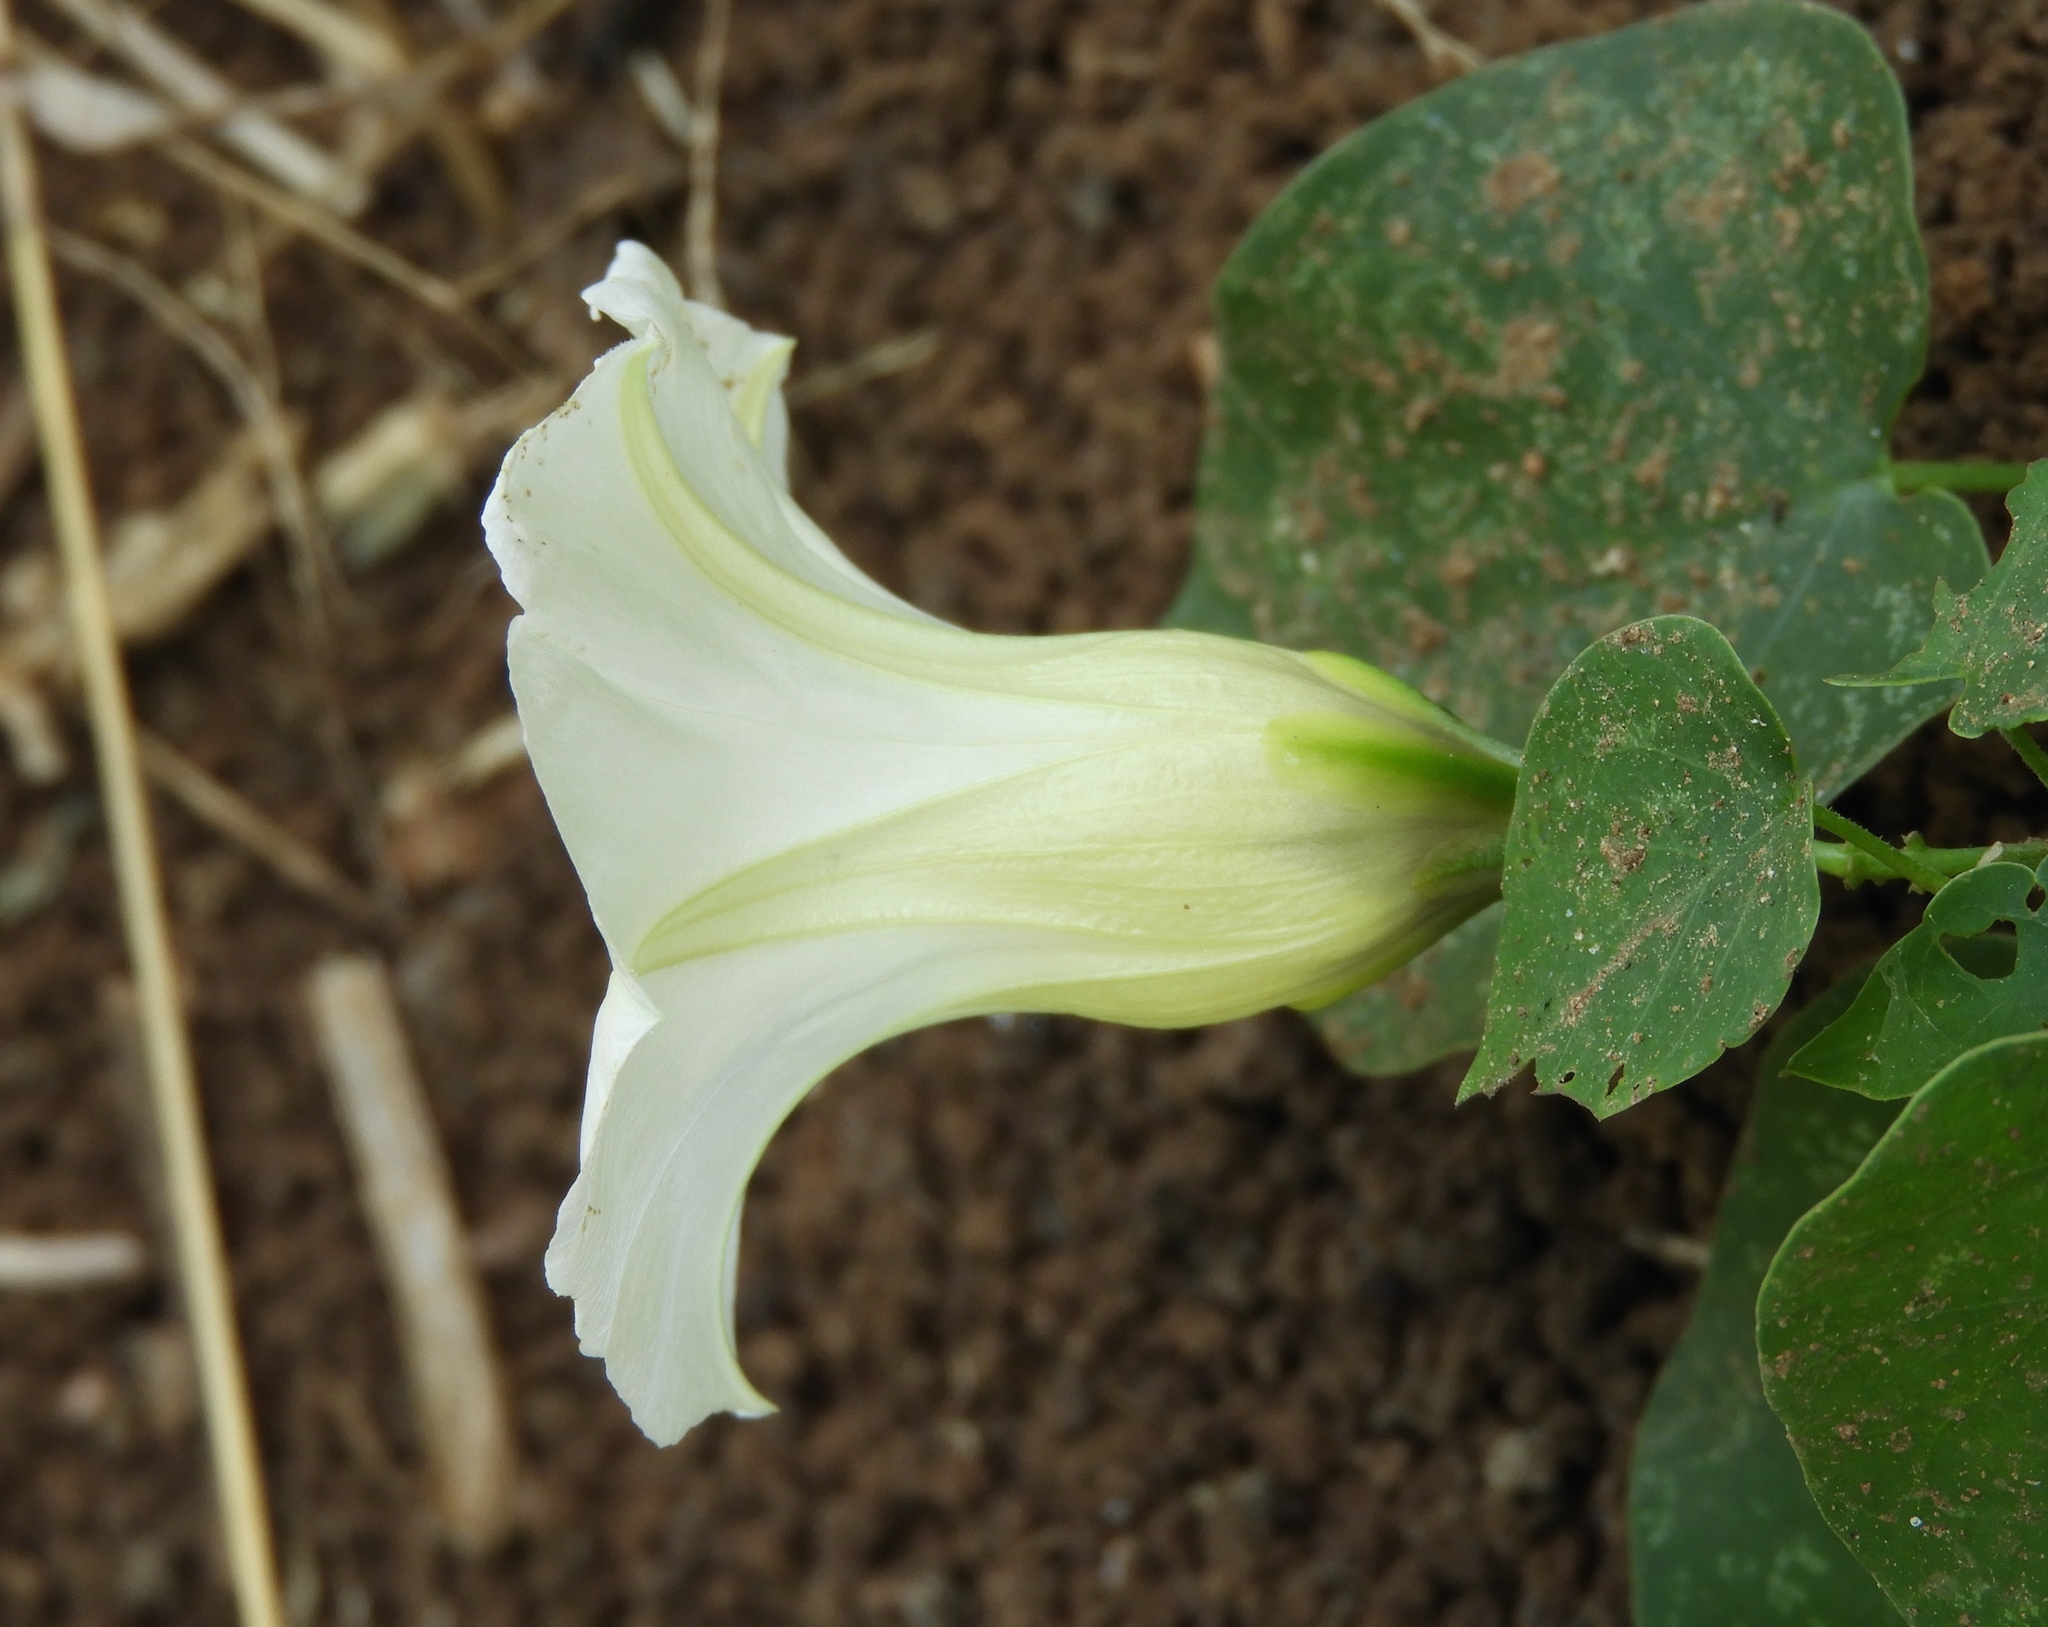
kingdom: Plantae
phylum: Tracheophyta
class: Magnoliopsida
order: Solanales
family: Convolvulaceae
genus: Ipomoea
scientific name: Ipomoea corymbosa
